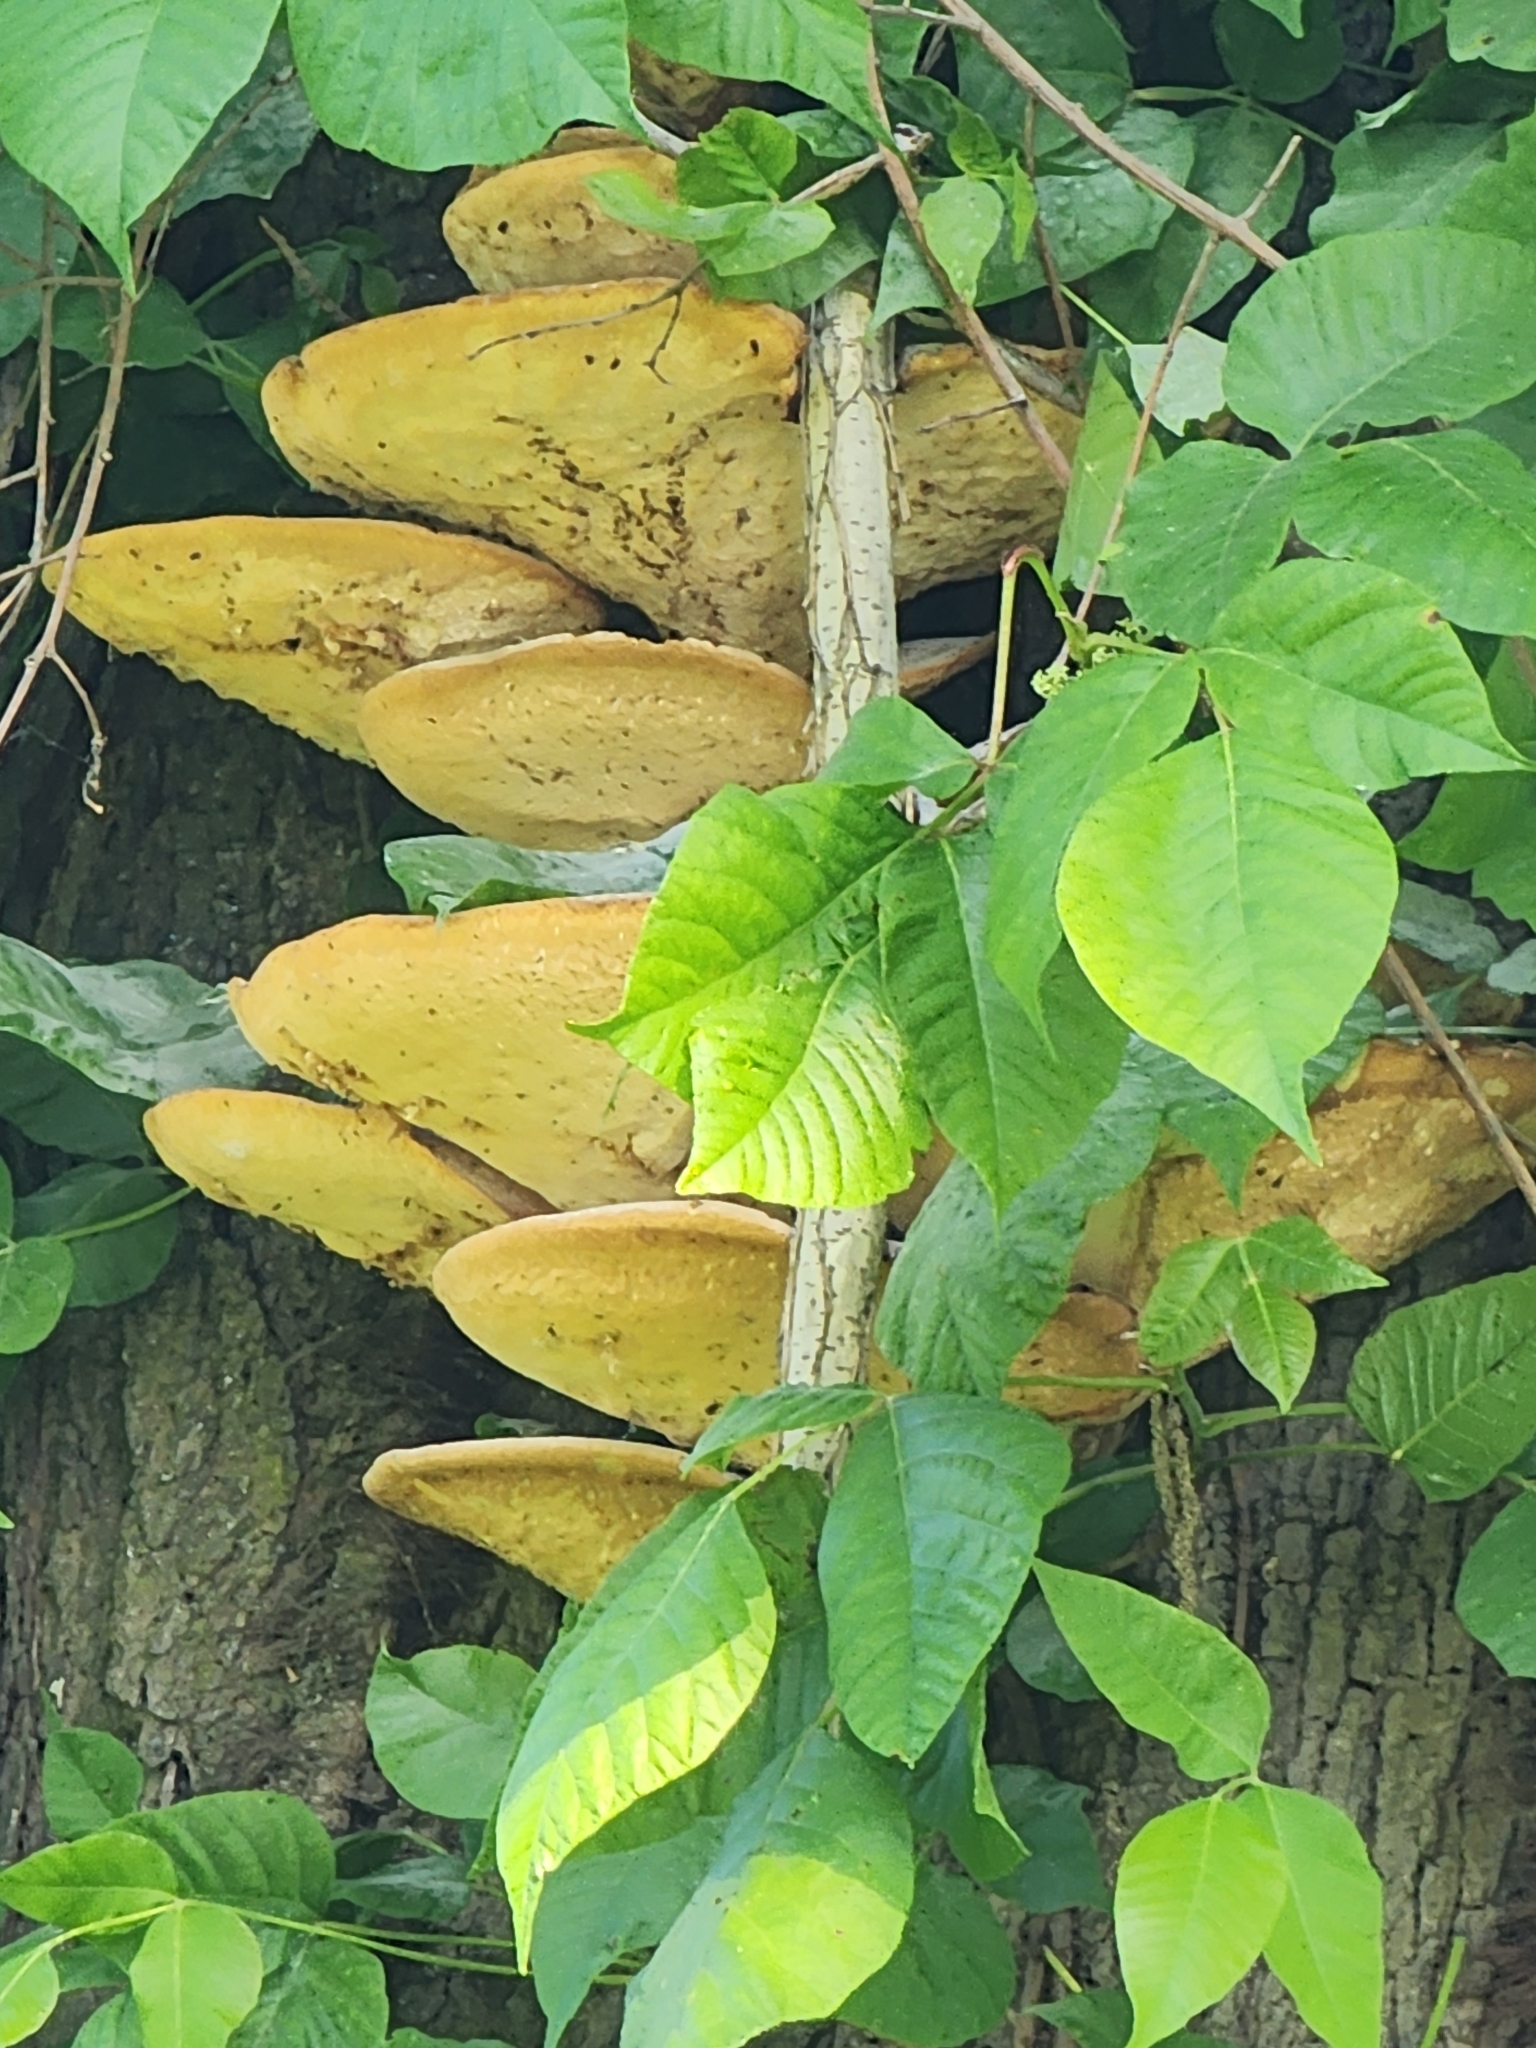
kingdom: Fungi
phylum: Basidiomycota
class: Agaricomycetes
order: Polyporales
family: Polyporaceae
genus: Cerioporus
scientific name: Cerioporus squamosus
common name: Dryad's saddle
